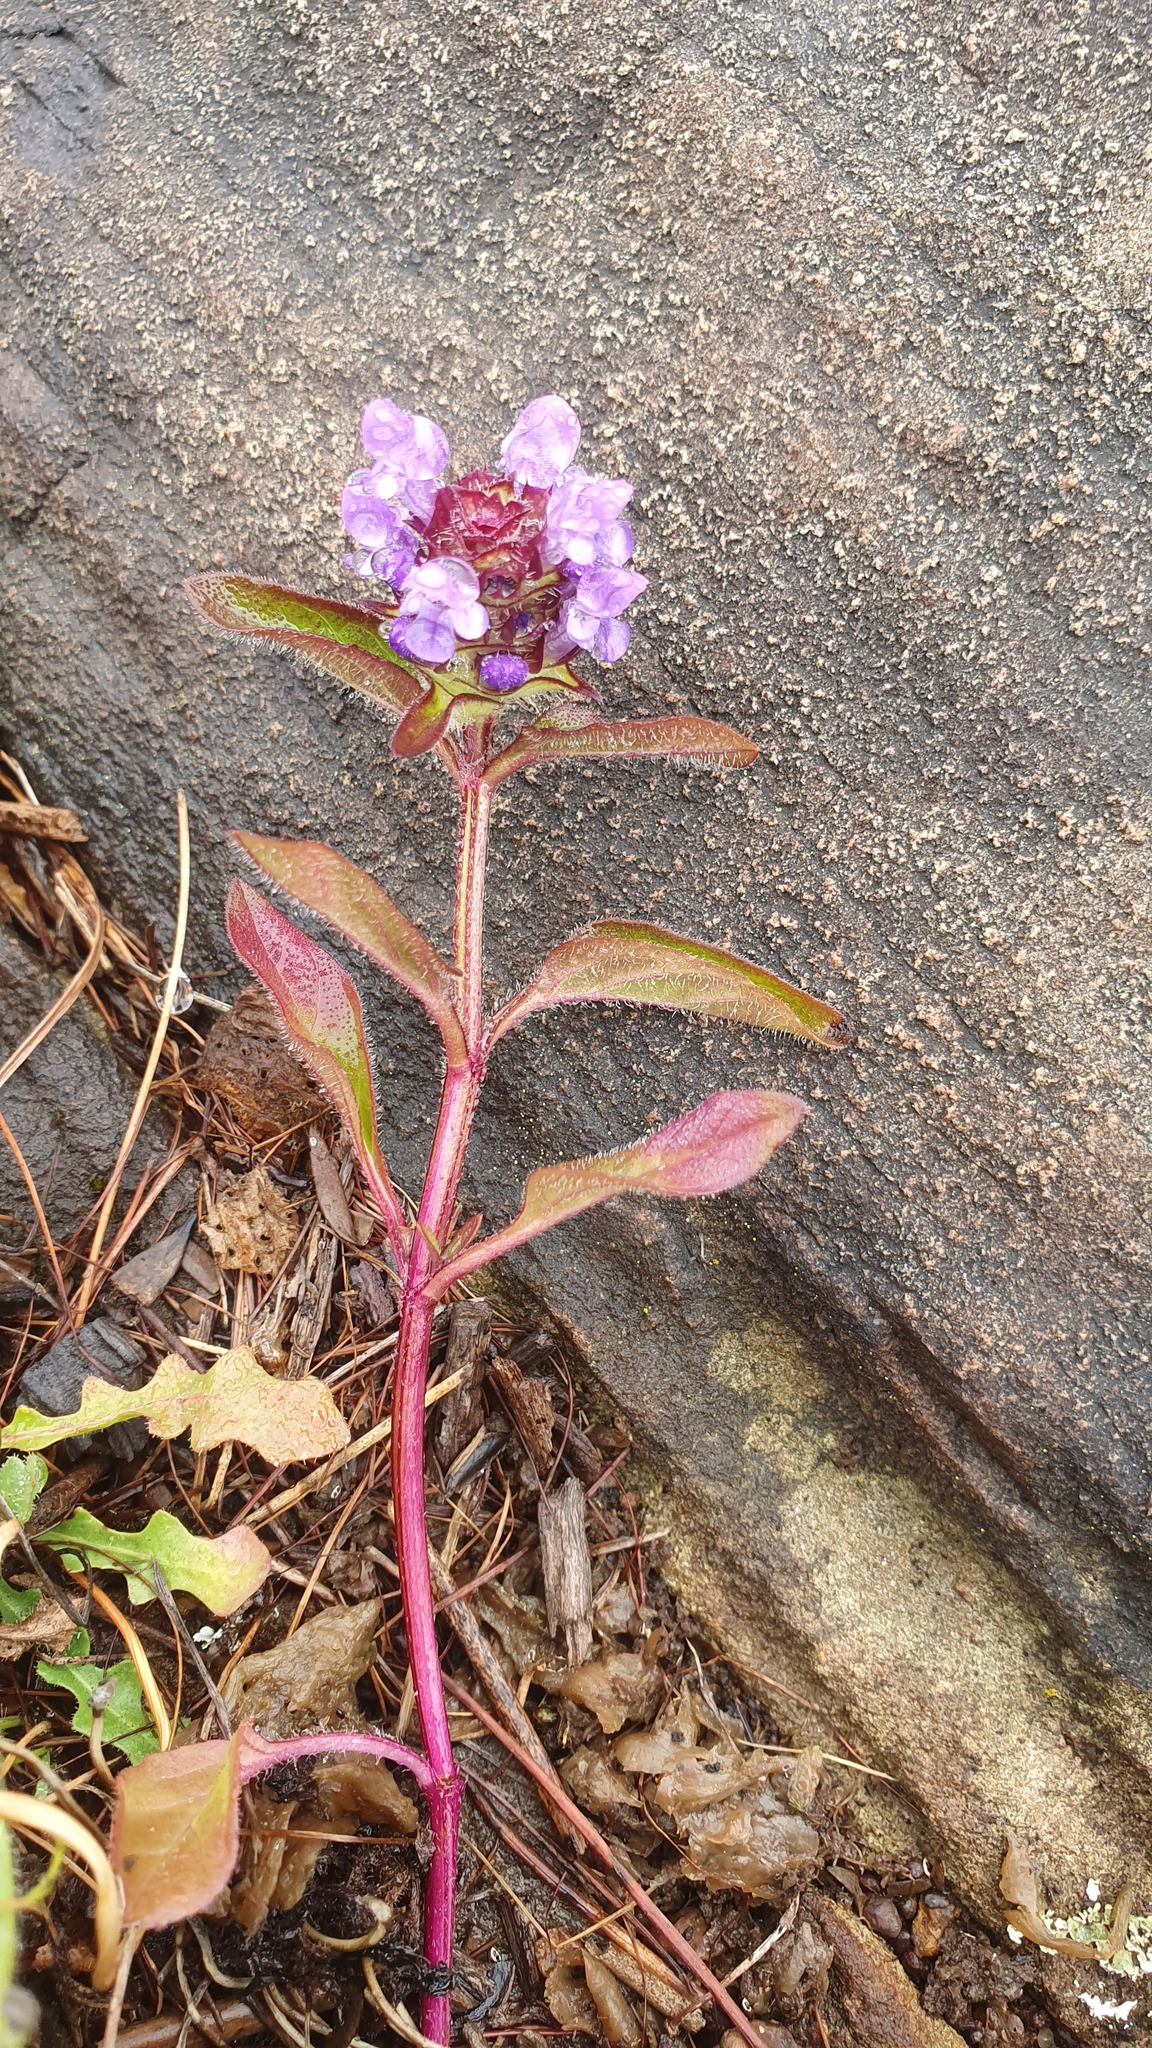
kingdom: Plantae
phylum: Tracheophyta
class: Magnoliopsida
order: Lamiales
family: Lamiaceae
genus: Prunella
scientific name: Prunella vulgaris
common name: Heal-all
